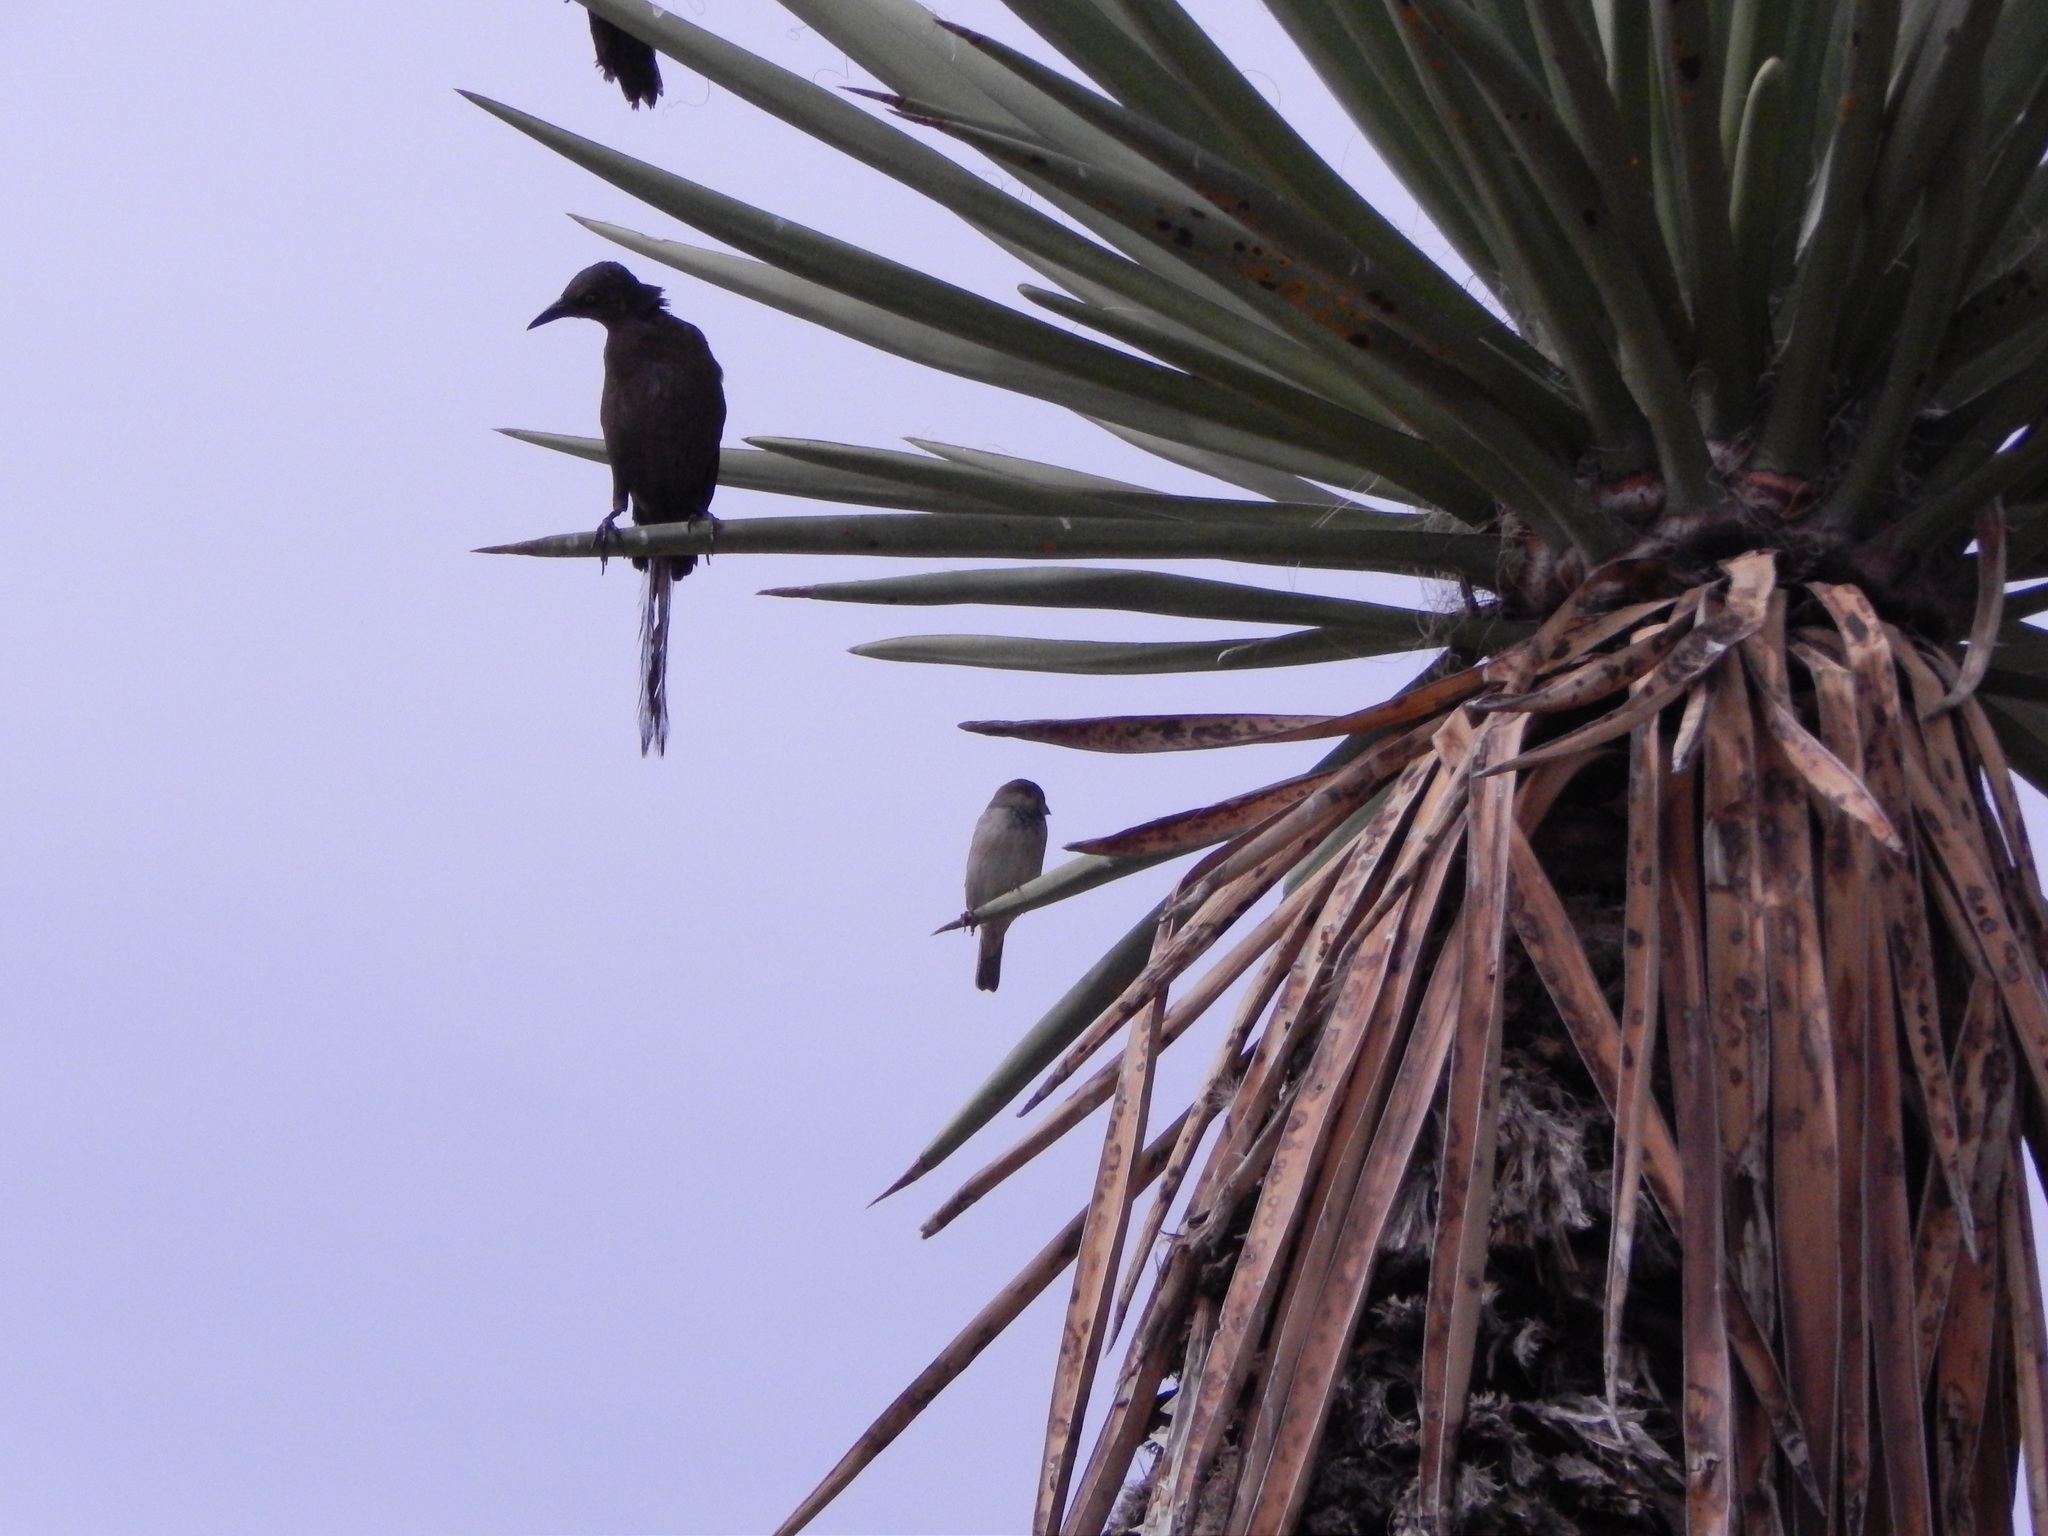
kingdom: Animalia
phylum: Chordata
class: Aves
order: Passeriformes
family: Icteridae
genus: Quiscalus
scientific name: Quiscalus mexicanus
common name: Great-tailed grackle
